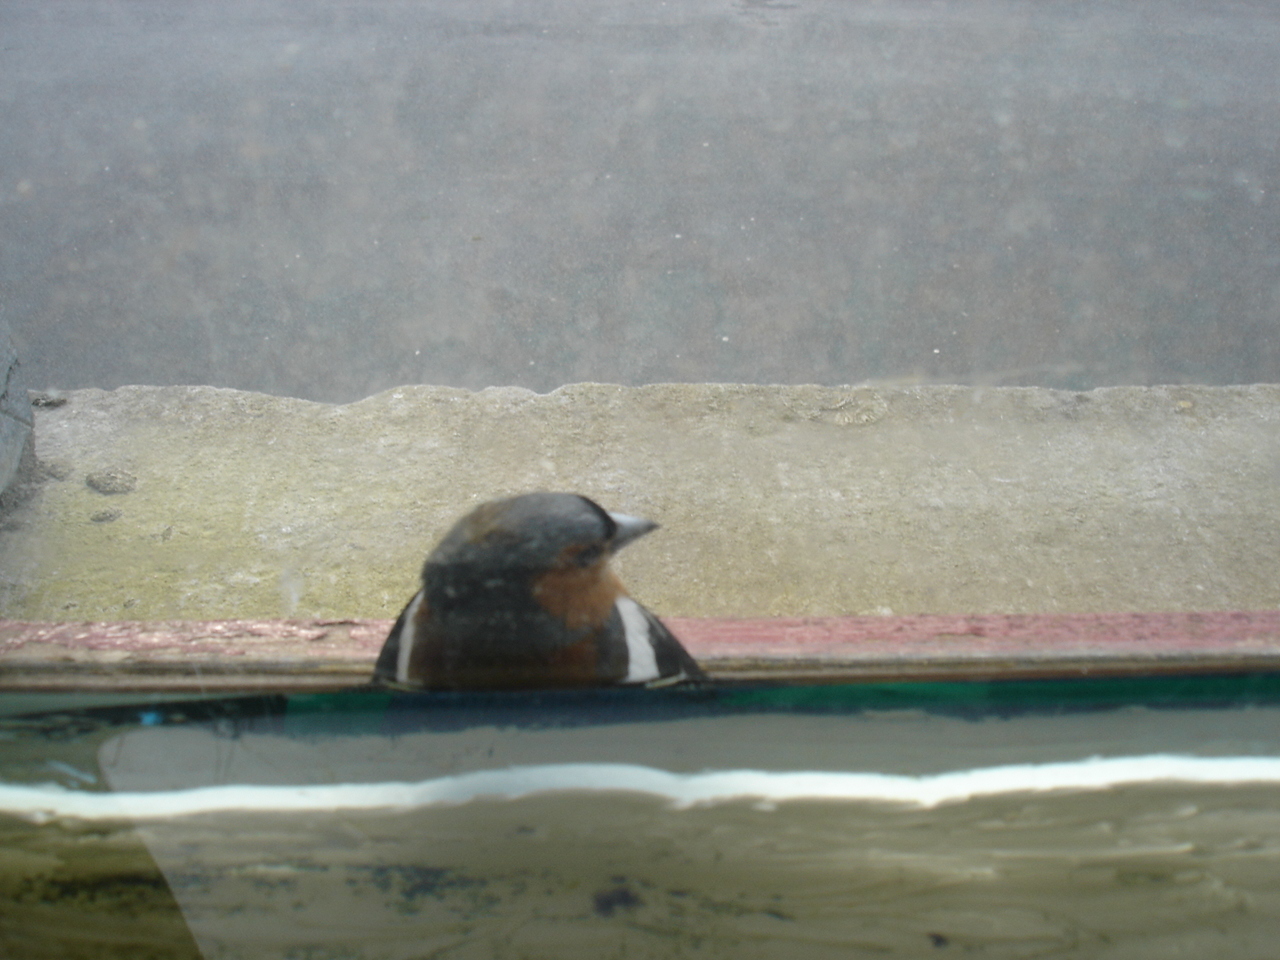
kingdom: Animalia
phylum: Chordata
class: Aves
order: Passeriformes
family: Fringillidae
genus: Fringilla
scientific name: Fringilla coelebs
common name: Common chaffinch
